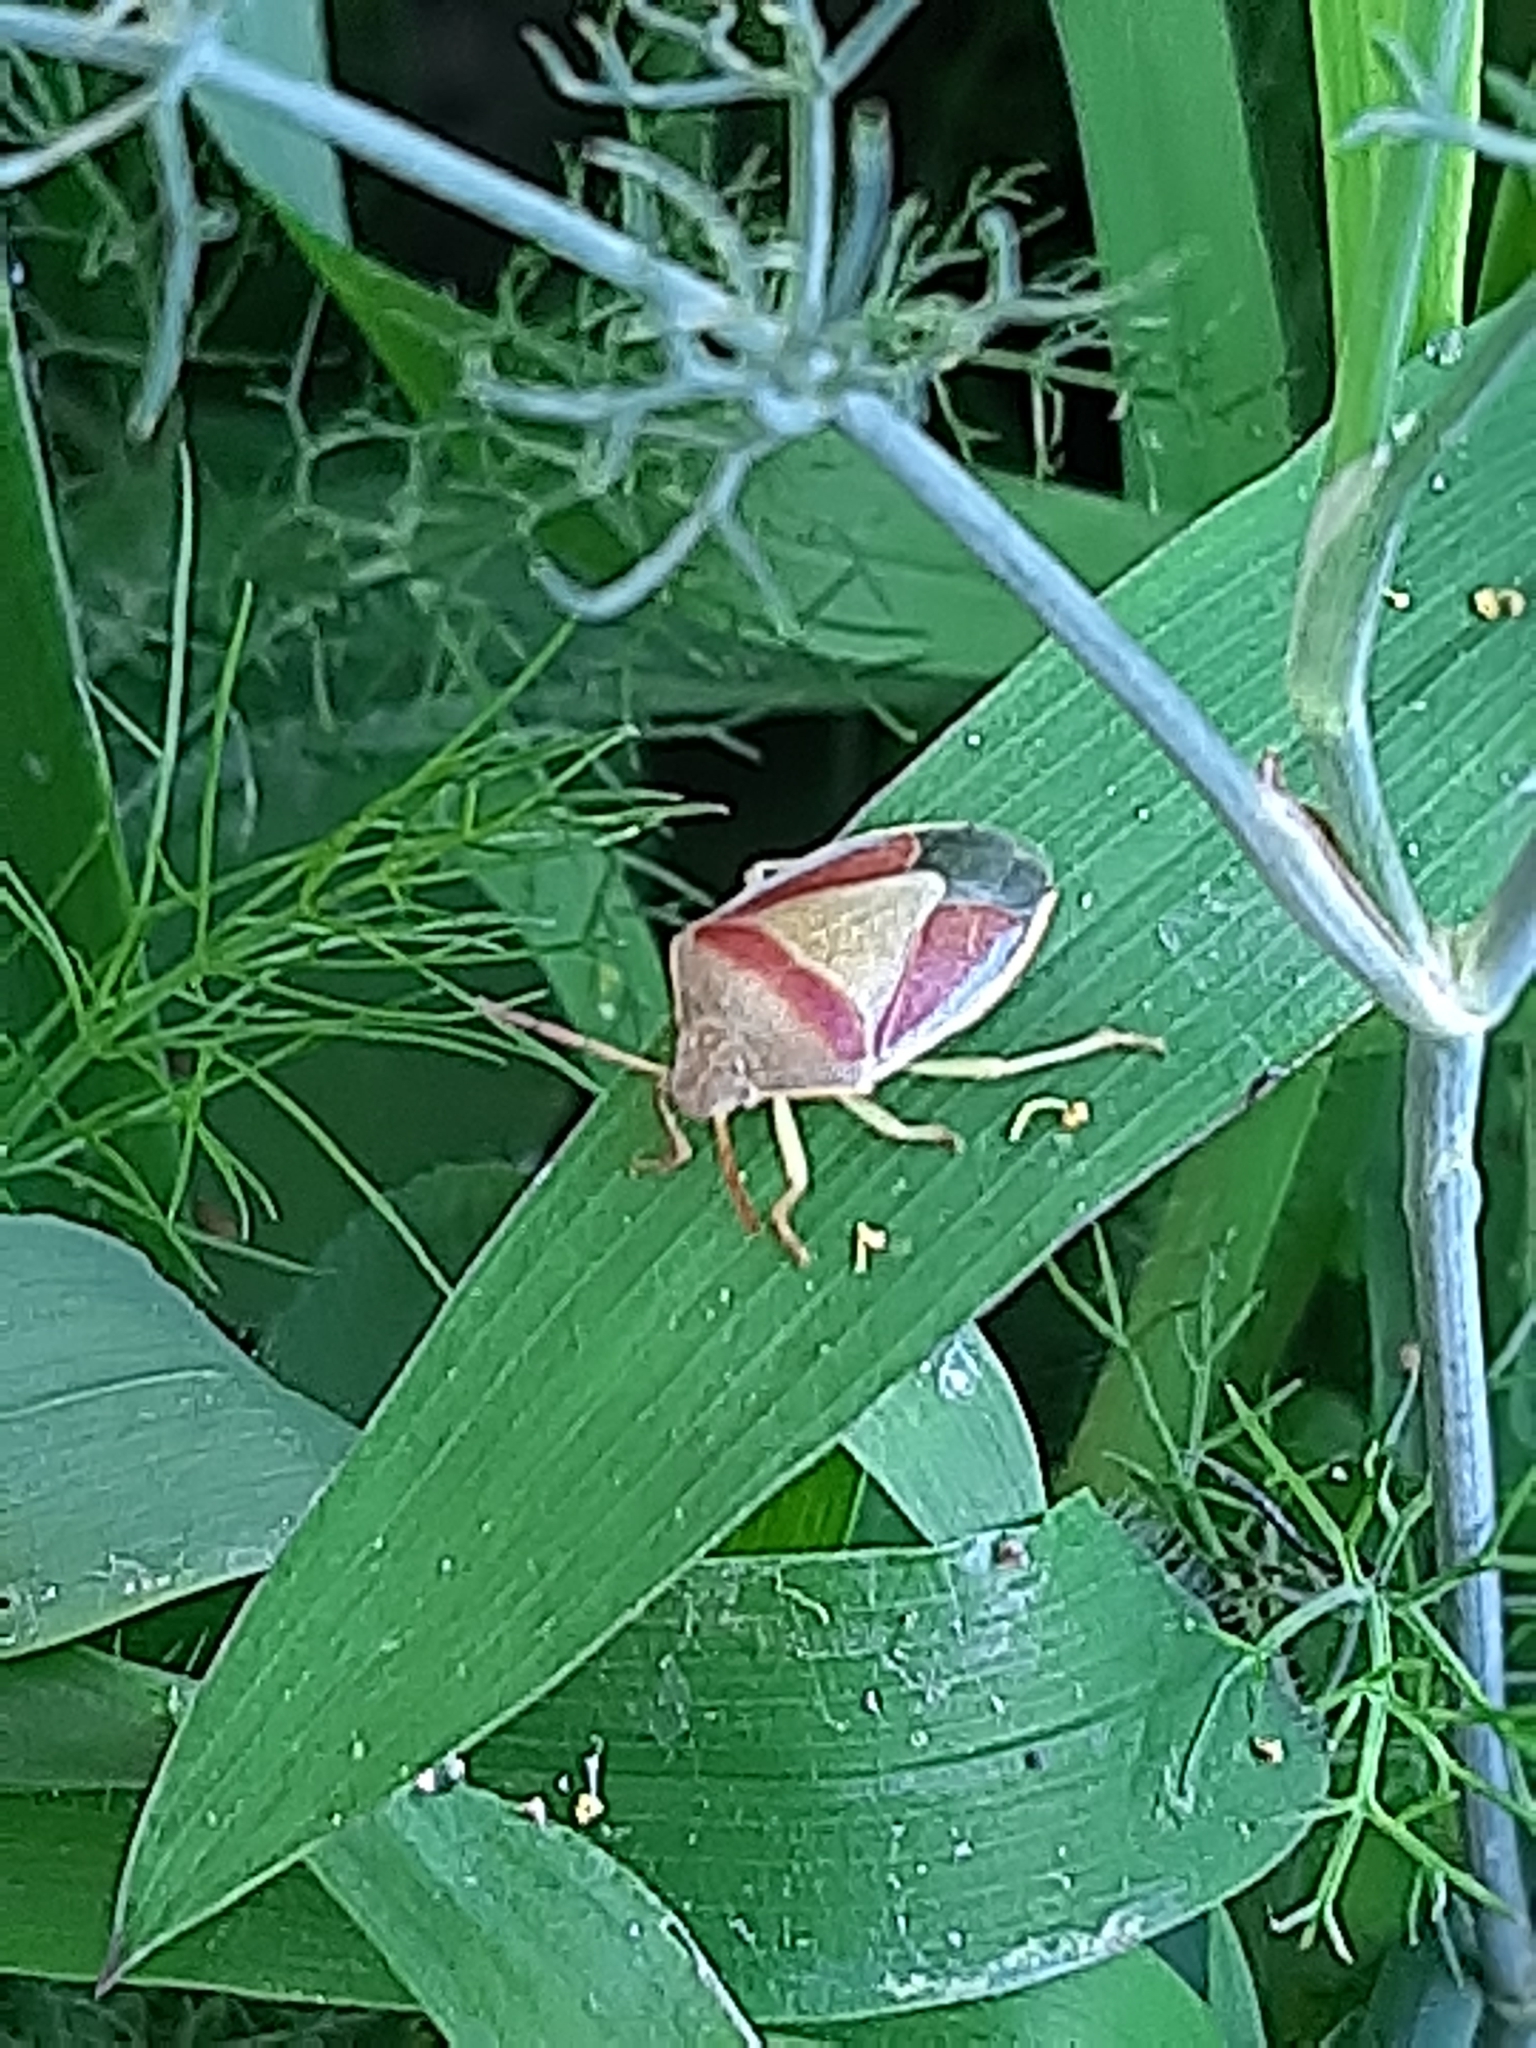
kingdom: Animalia
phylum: Arthropoda
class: Insecta
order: Hemiptera
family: Pentatomidae
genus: Piezodorus
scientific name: Piezodorus lituratus
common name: Stink bug
